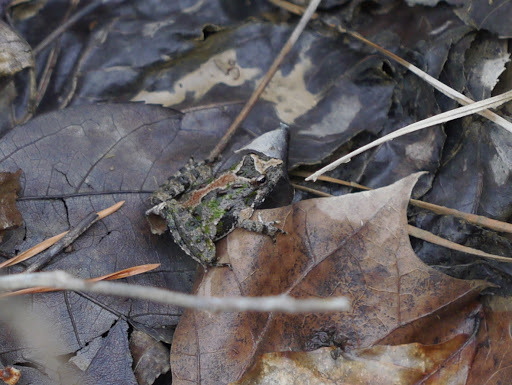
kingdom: Animalia
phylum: Chordata
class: Amphibia
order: Anura
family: Hylidae
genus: Acris
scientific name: Acris crepitans
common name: Northern cricket frog
